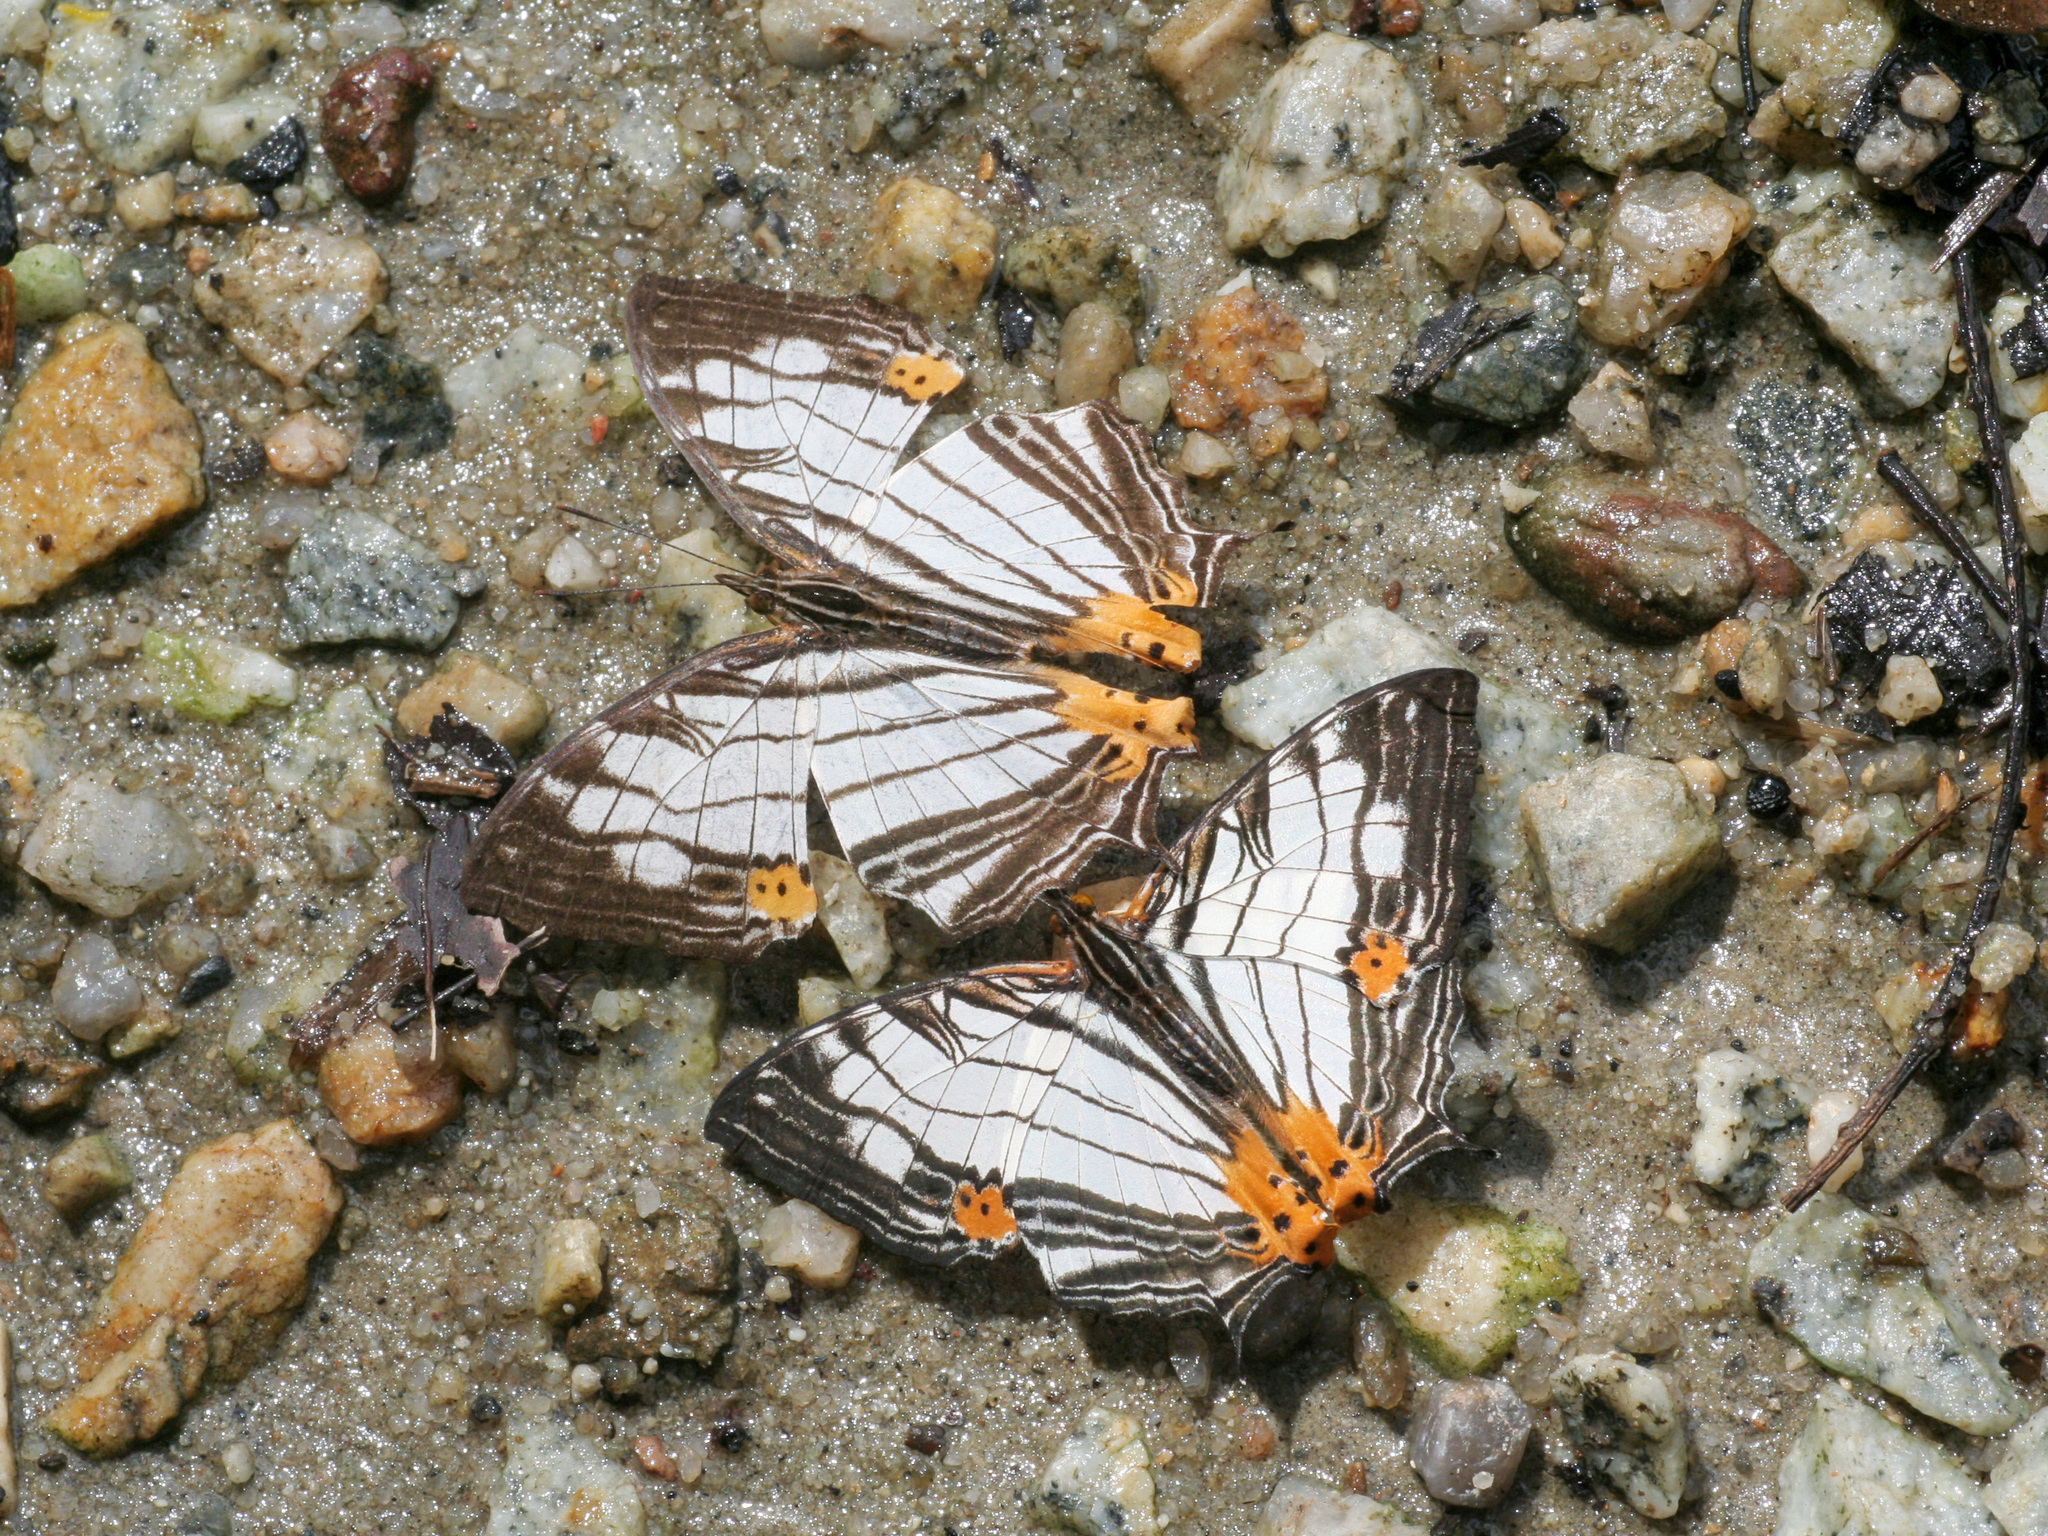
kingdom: Animalia
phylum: Arthropoda
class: Insecta
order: Lepidoptera
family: Nymphalidae
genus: Cyrestis
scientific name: Cyrestis maenalis
